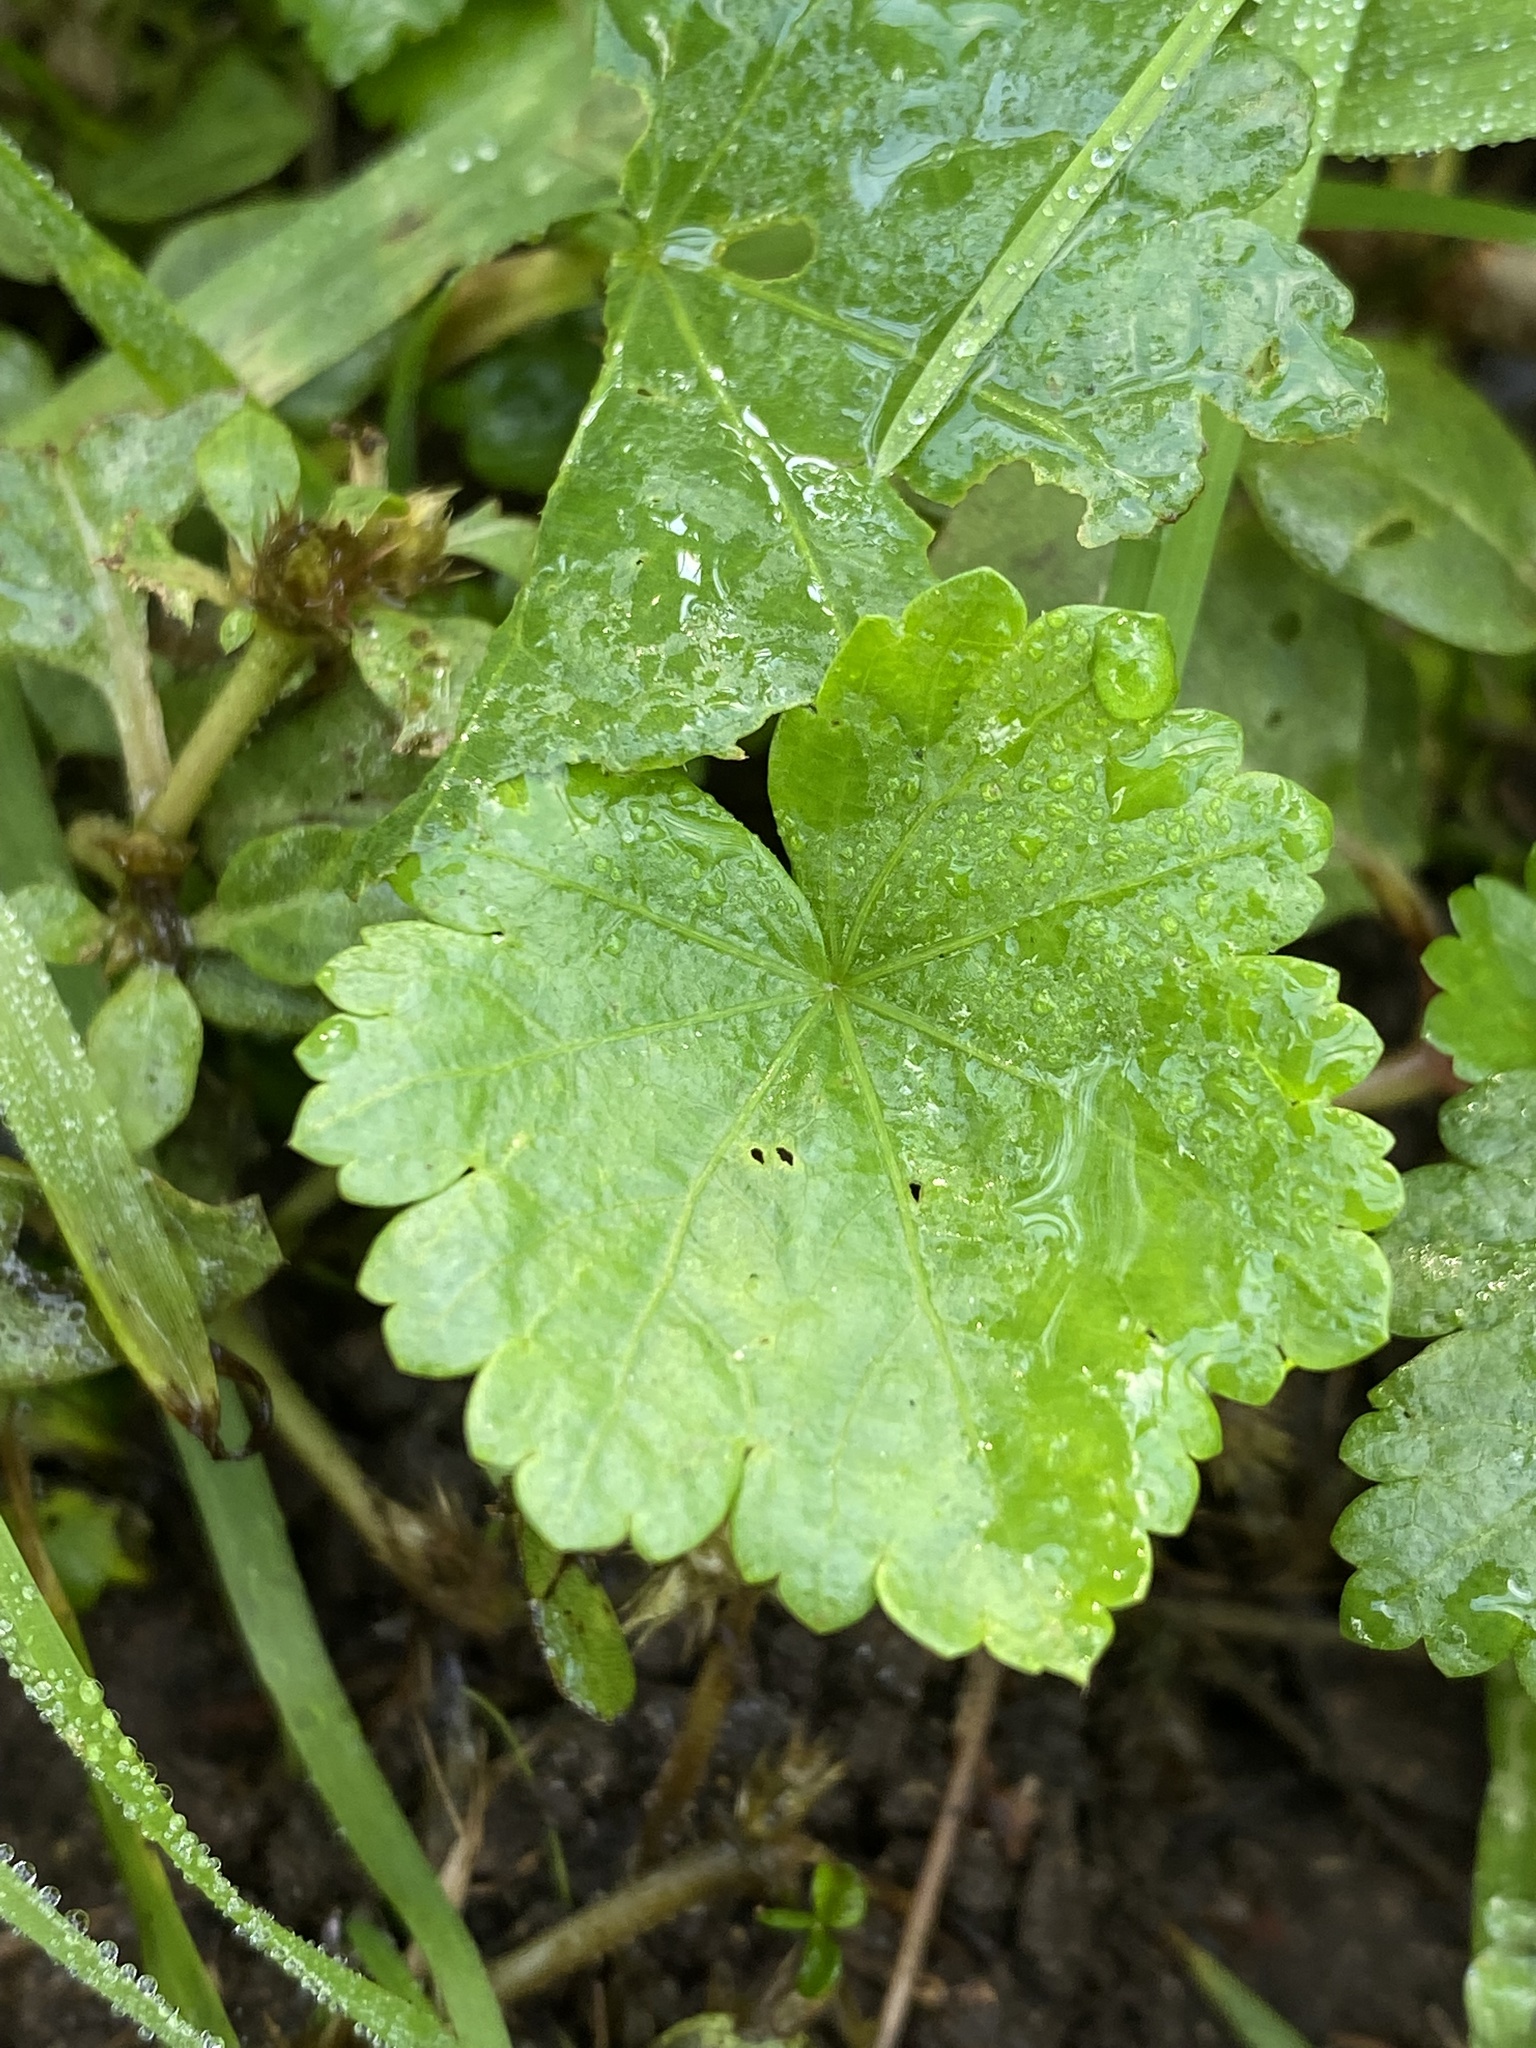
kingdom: Plantae
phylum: Tracheophyta
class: Magnoliopsida
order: Malvales
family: Malvaceae
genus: Modiola
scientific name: Modiola caroliniana
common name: Carolina bristlemallow
